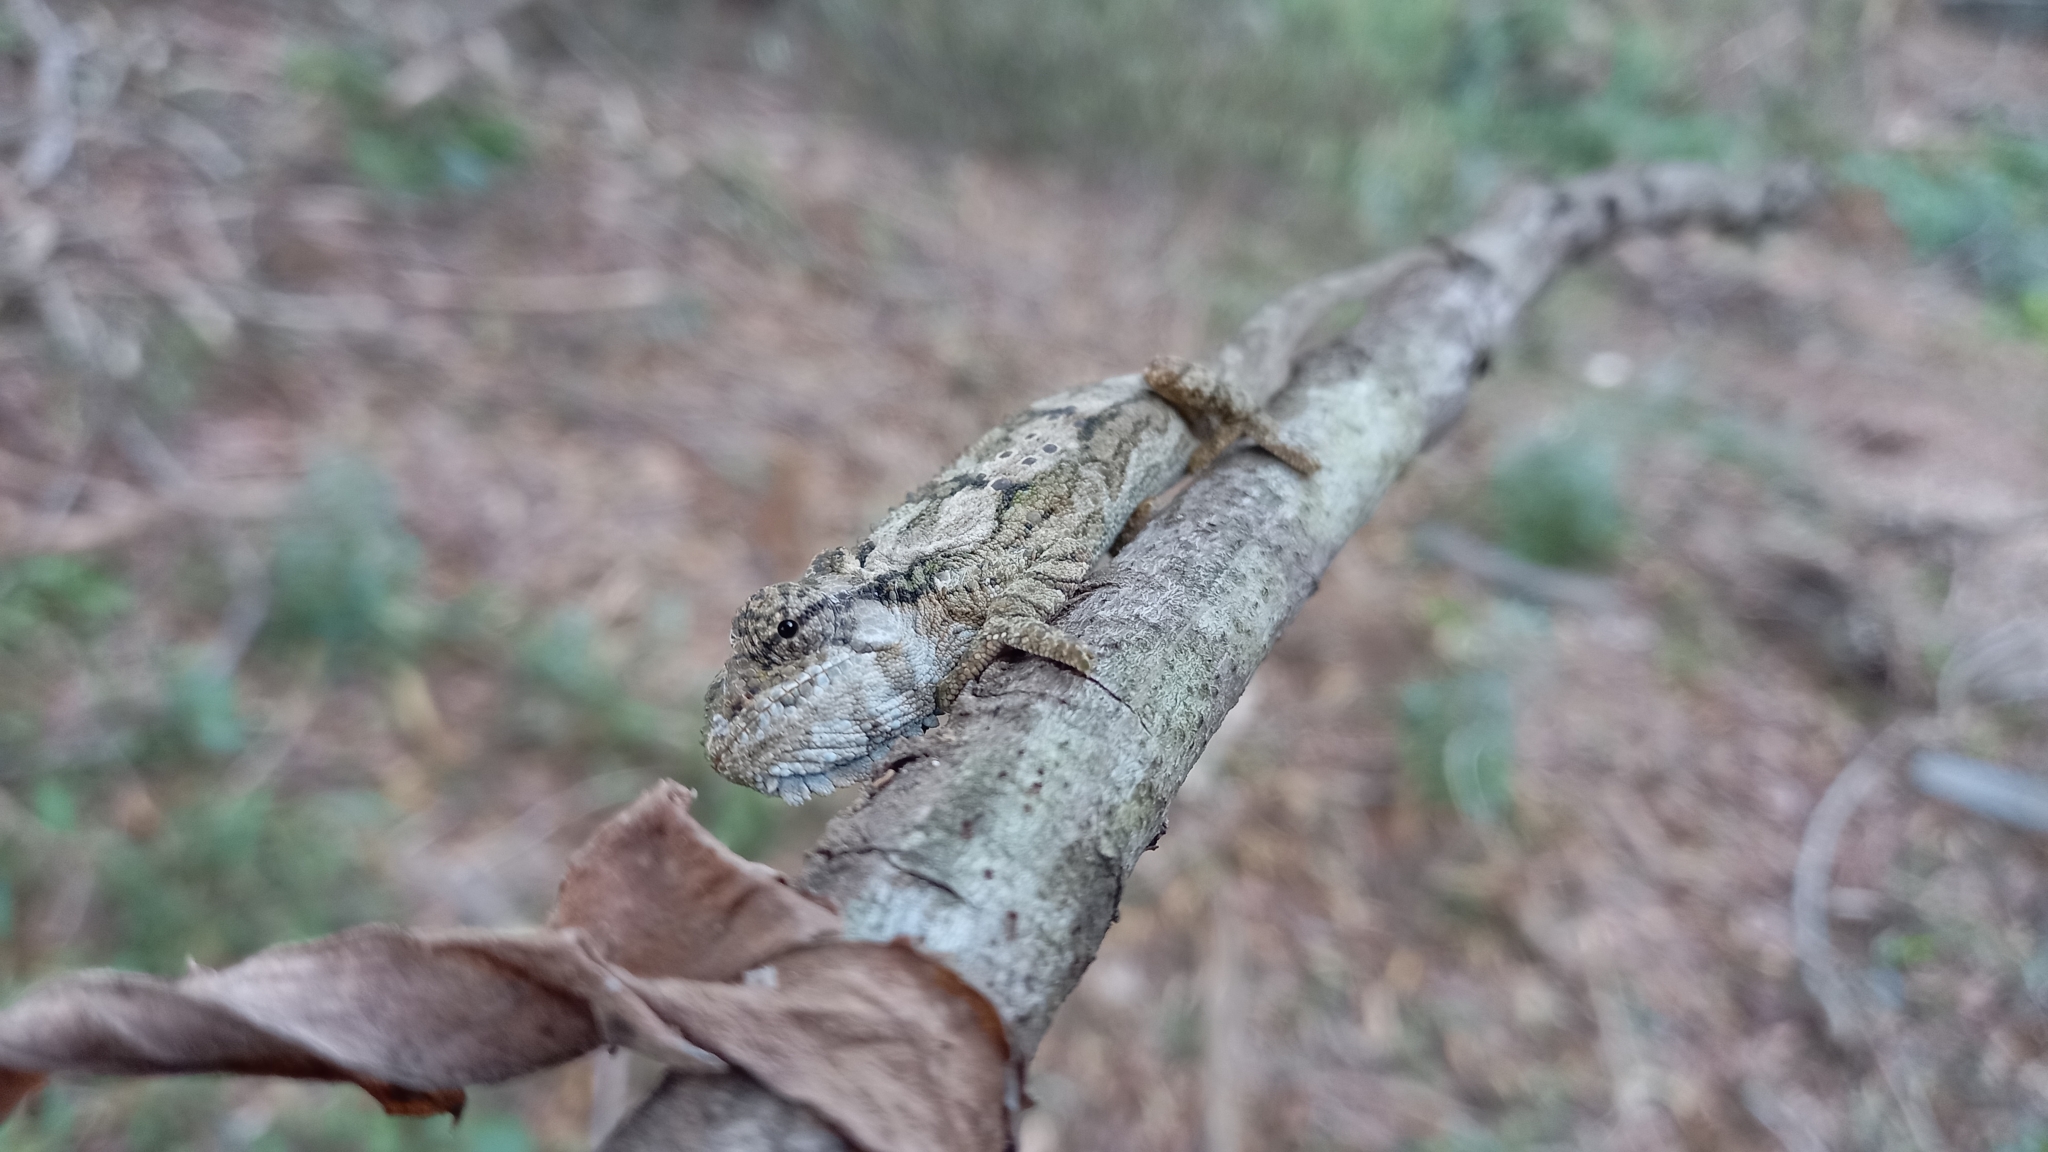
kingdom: Animalia
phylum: Chordata
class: Squamata
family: Chamaeleonidae
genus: Bradypodion
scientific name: Bradypodion ventrale
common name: Eastern cape dwarf chameleon
